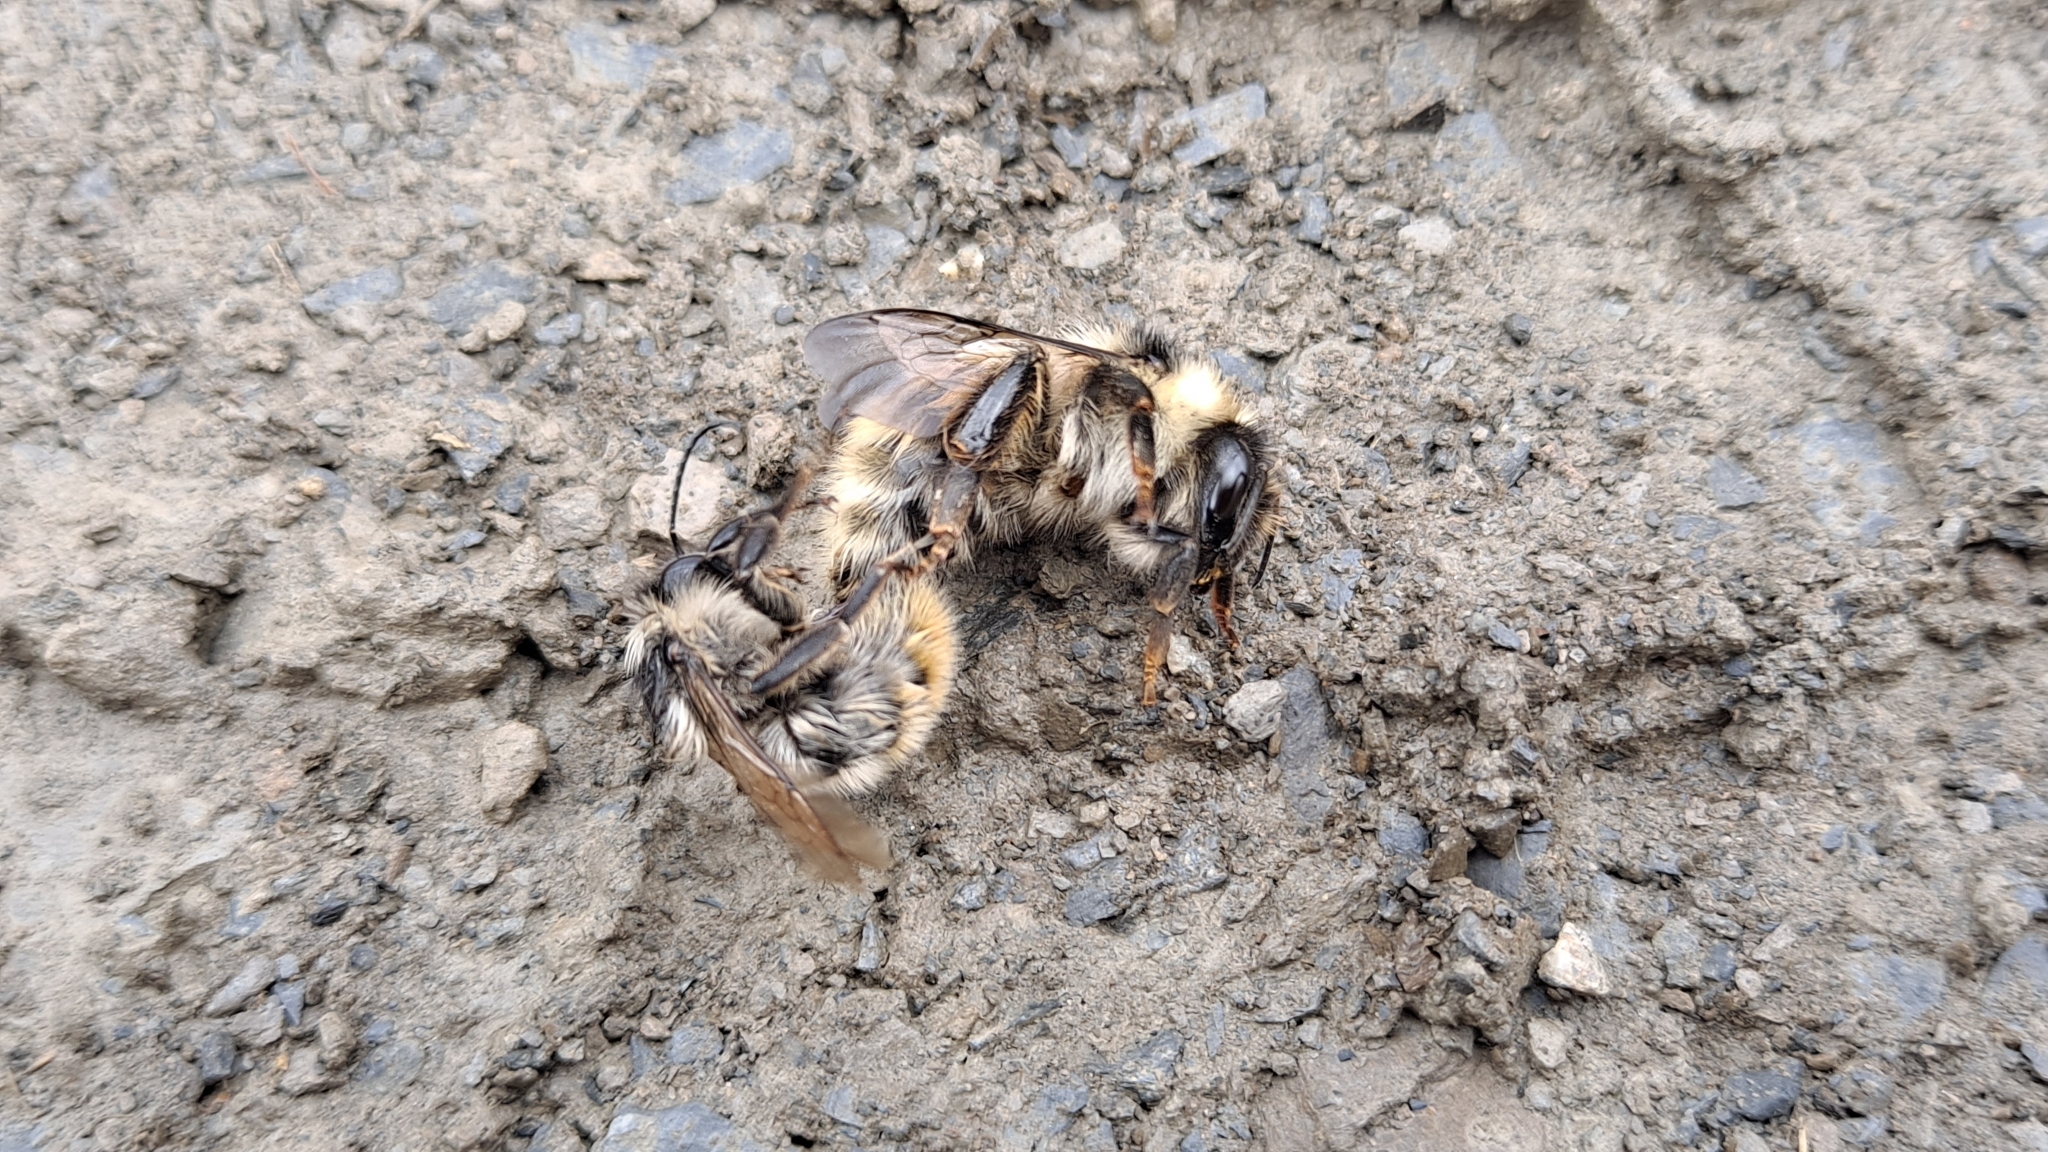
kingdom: Animalia
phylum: Arthropoda
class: Insecta
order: Hymenoptera
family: Apidae
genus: Bombus
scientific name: Bombus mesomelas
